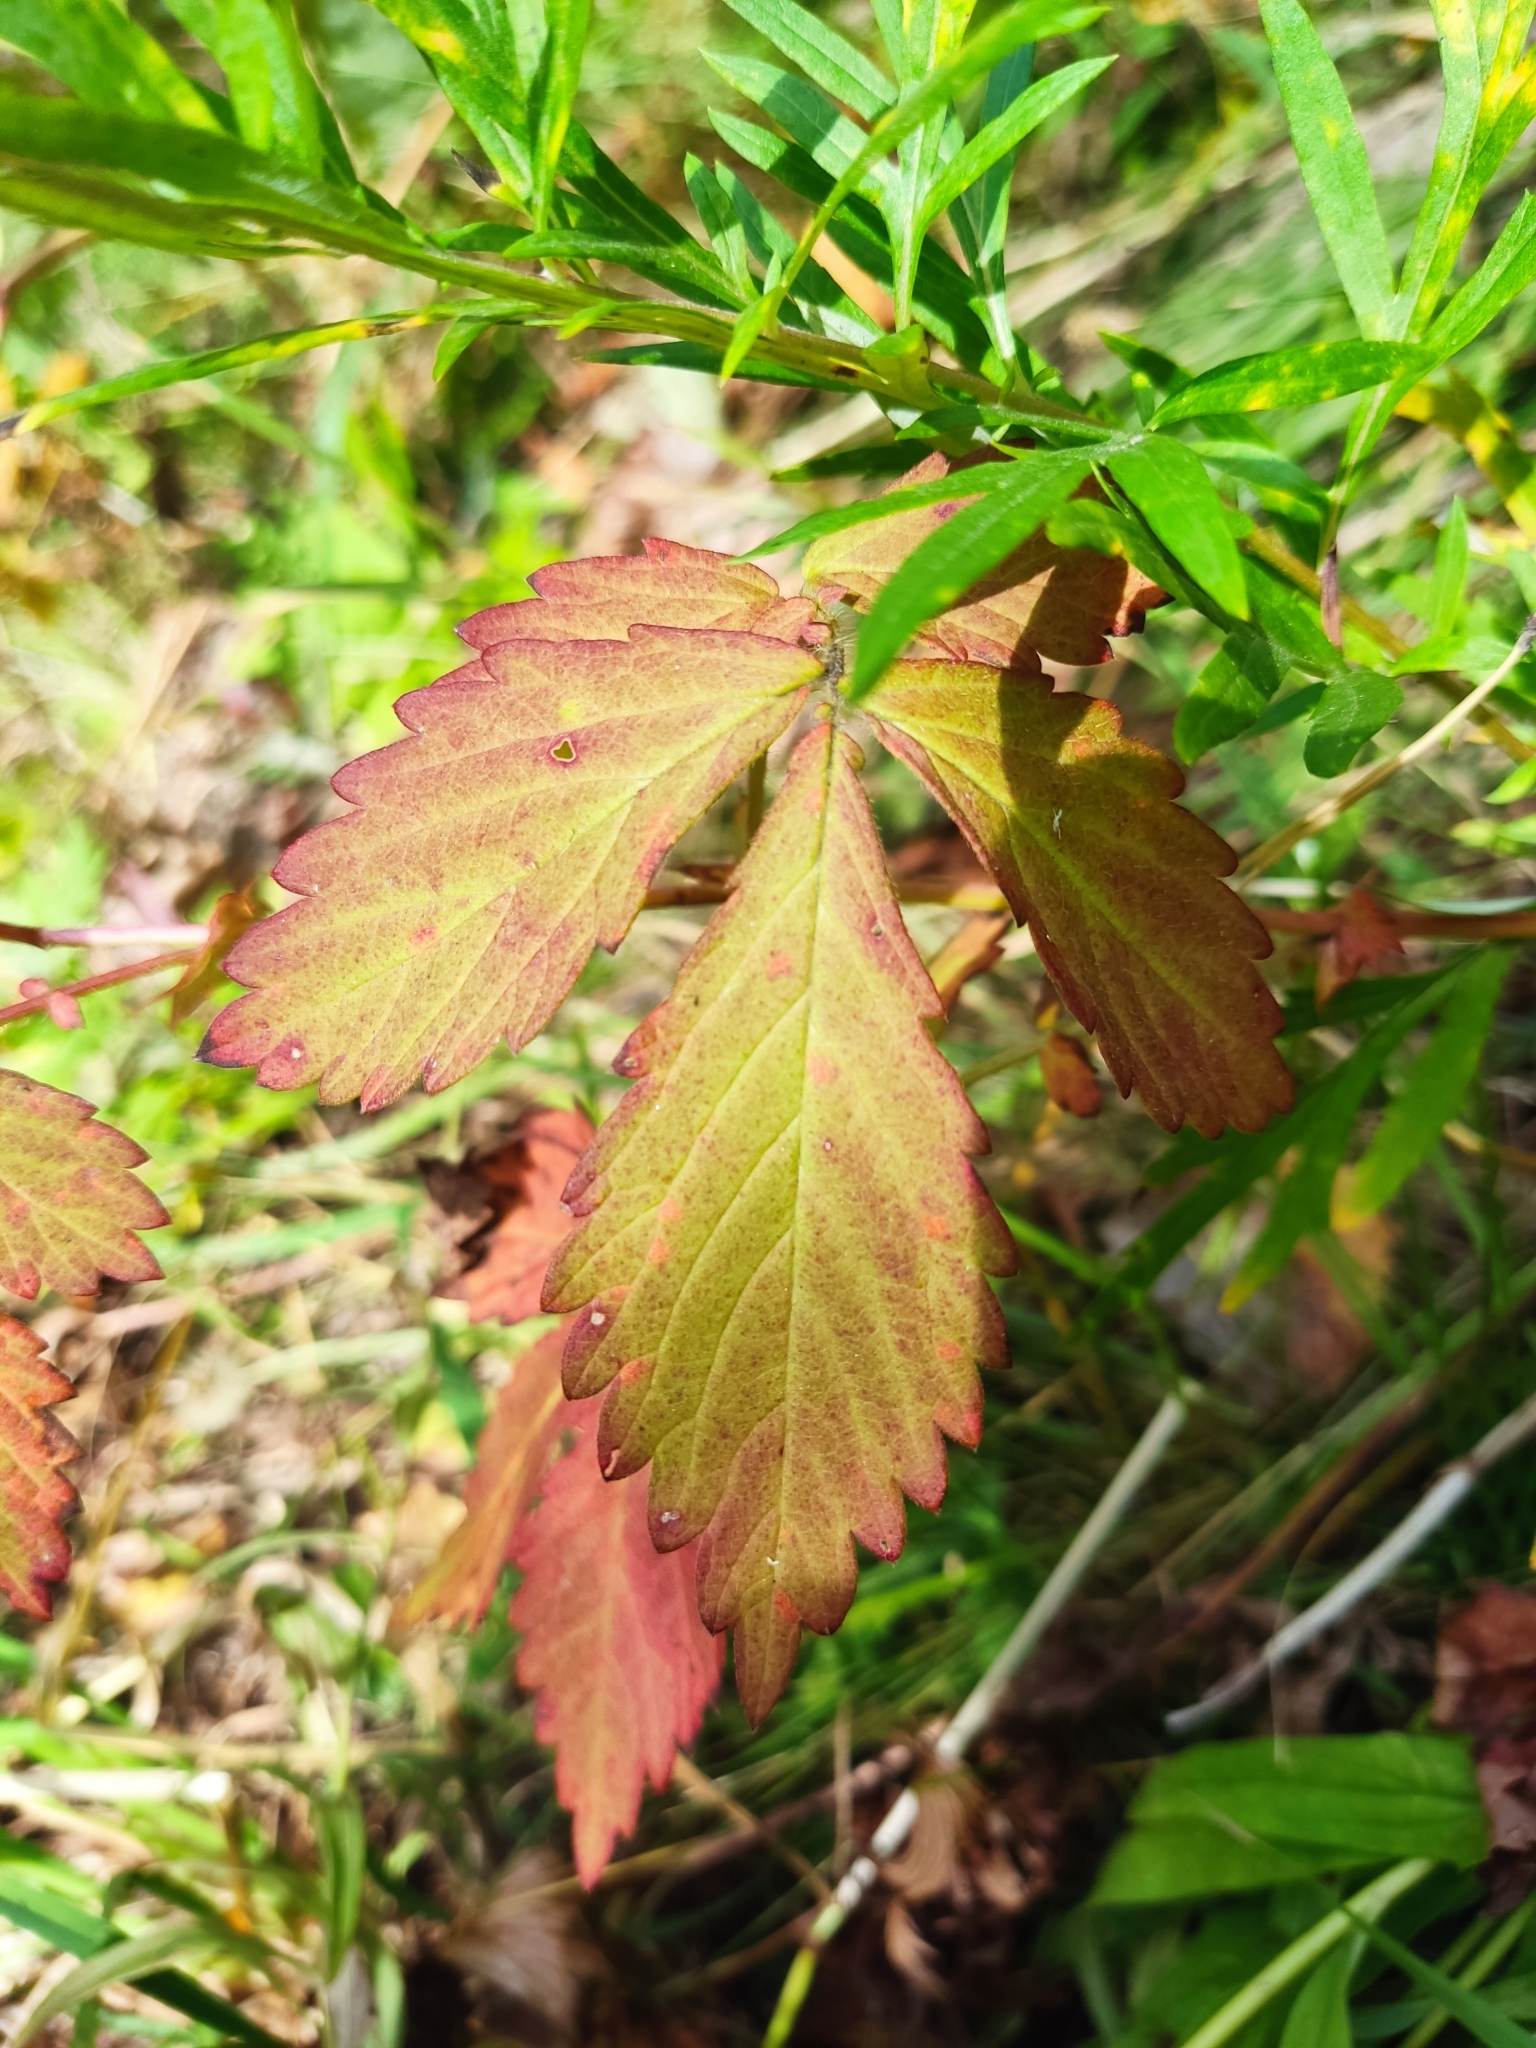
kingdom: Plantae
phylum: Tracheophyta
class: Magnoliopsida
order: Rosales
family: Rosaceae
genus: Agrimonia
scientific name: Agrimonia pilosa
